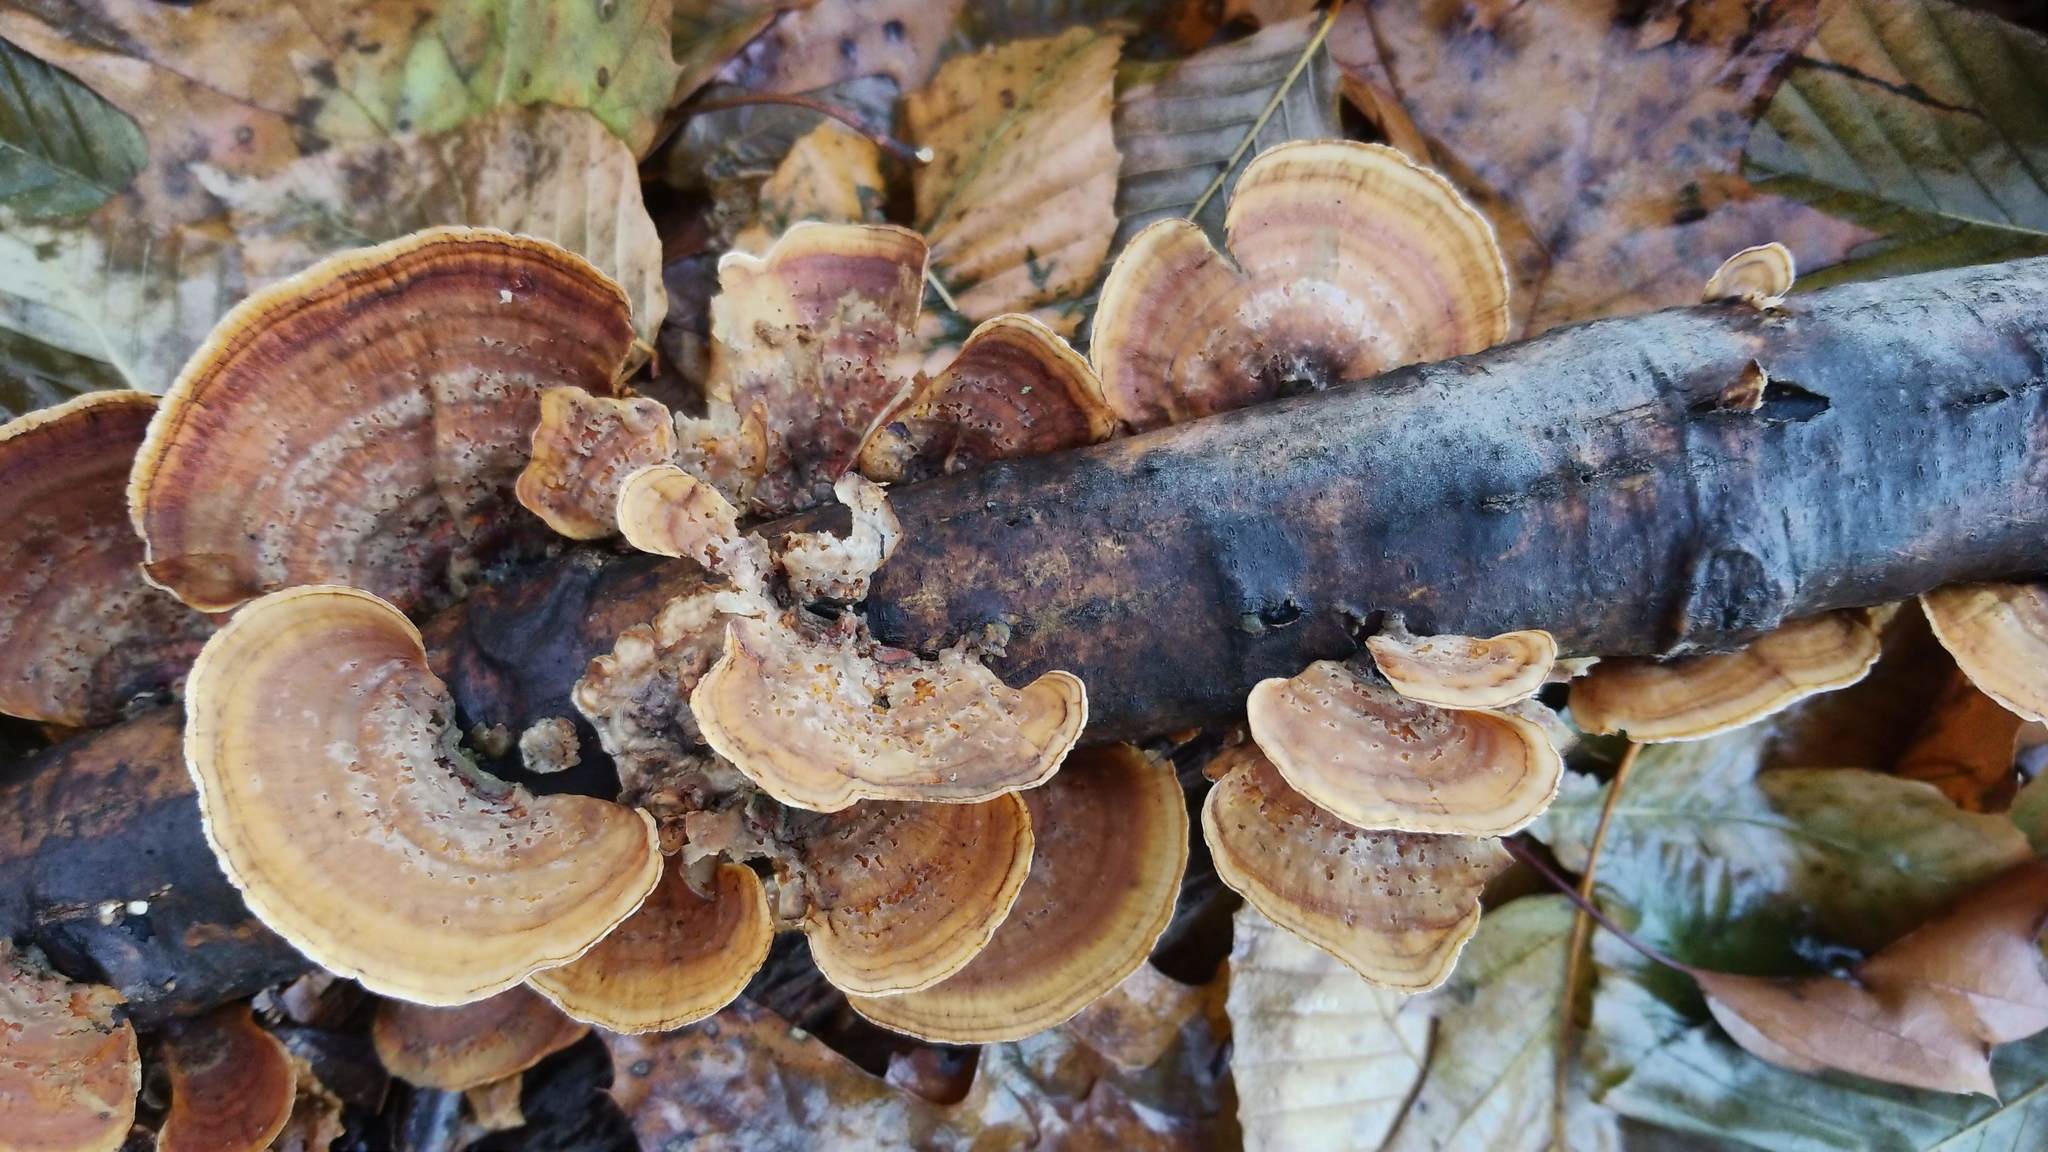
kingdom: Fungi
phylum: Basidiomycota
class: Agaricomycetes
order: Russulales
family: Stereaceae
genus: Stereum
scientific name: Stereum ostrea
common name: False turkeytail
